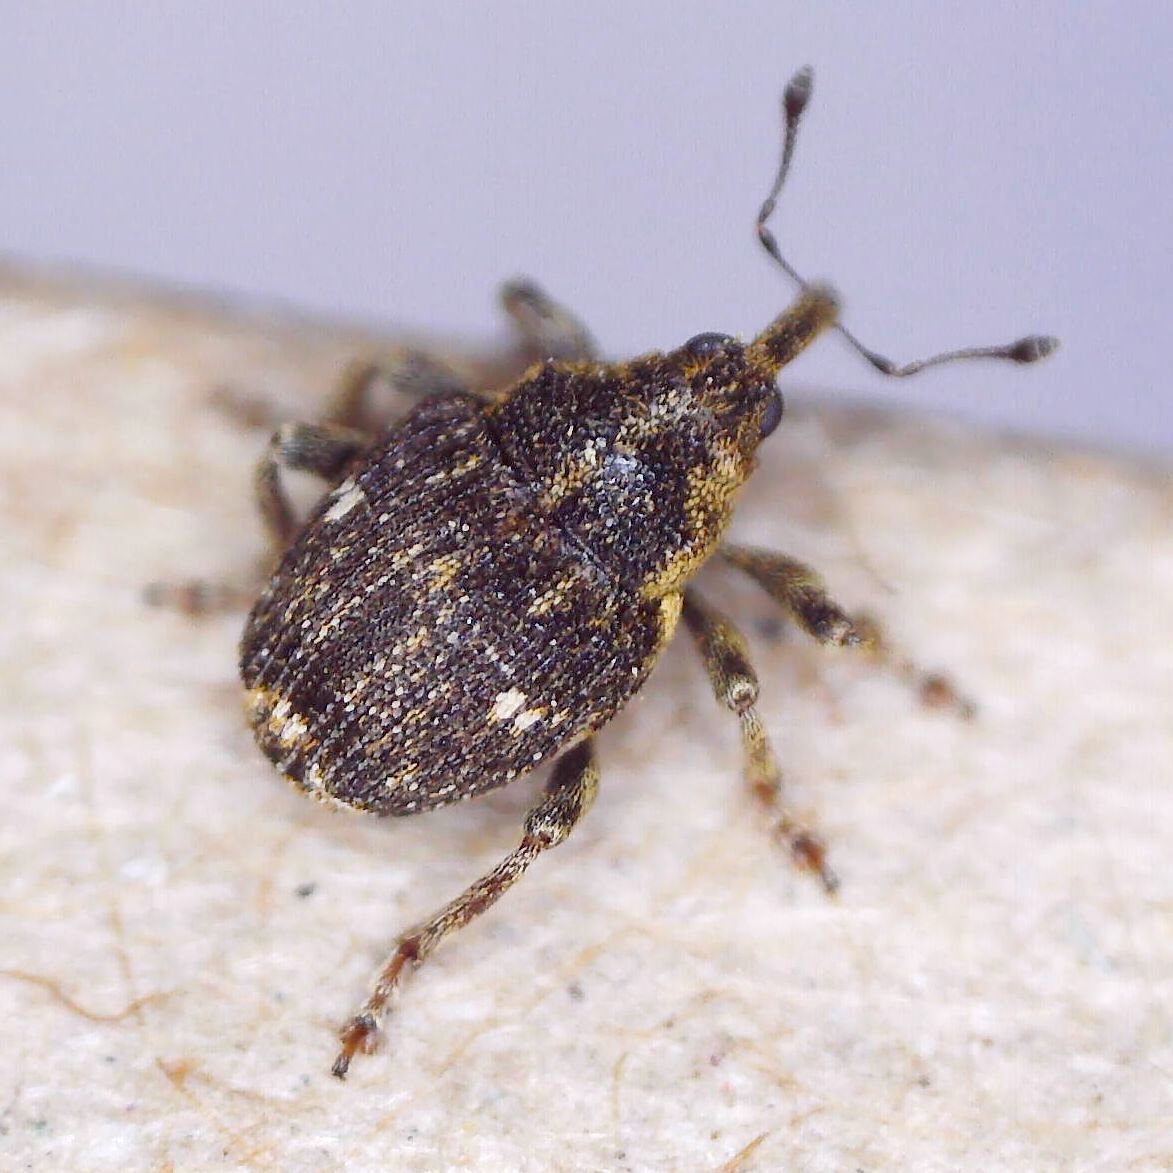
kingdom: Animalia
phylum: Arthropoda
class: Insecta
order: Coleoptera
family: Curculionidae
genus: Nedyus
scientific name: Nedyus quadrimaculatus
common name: Small nettle weevil
